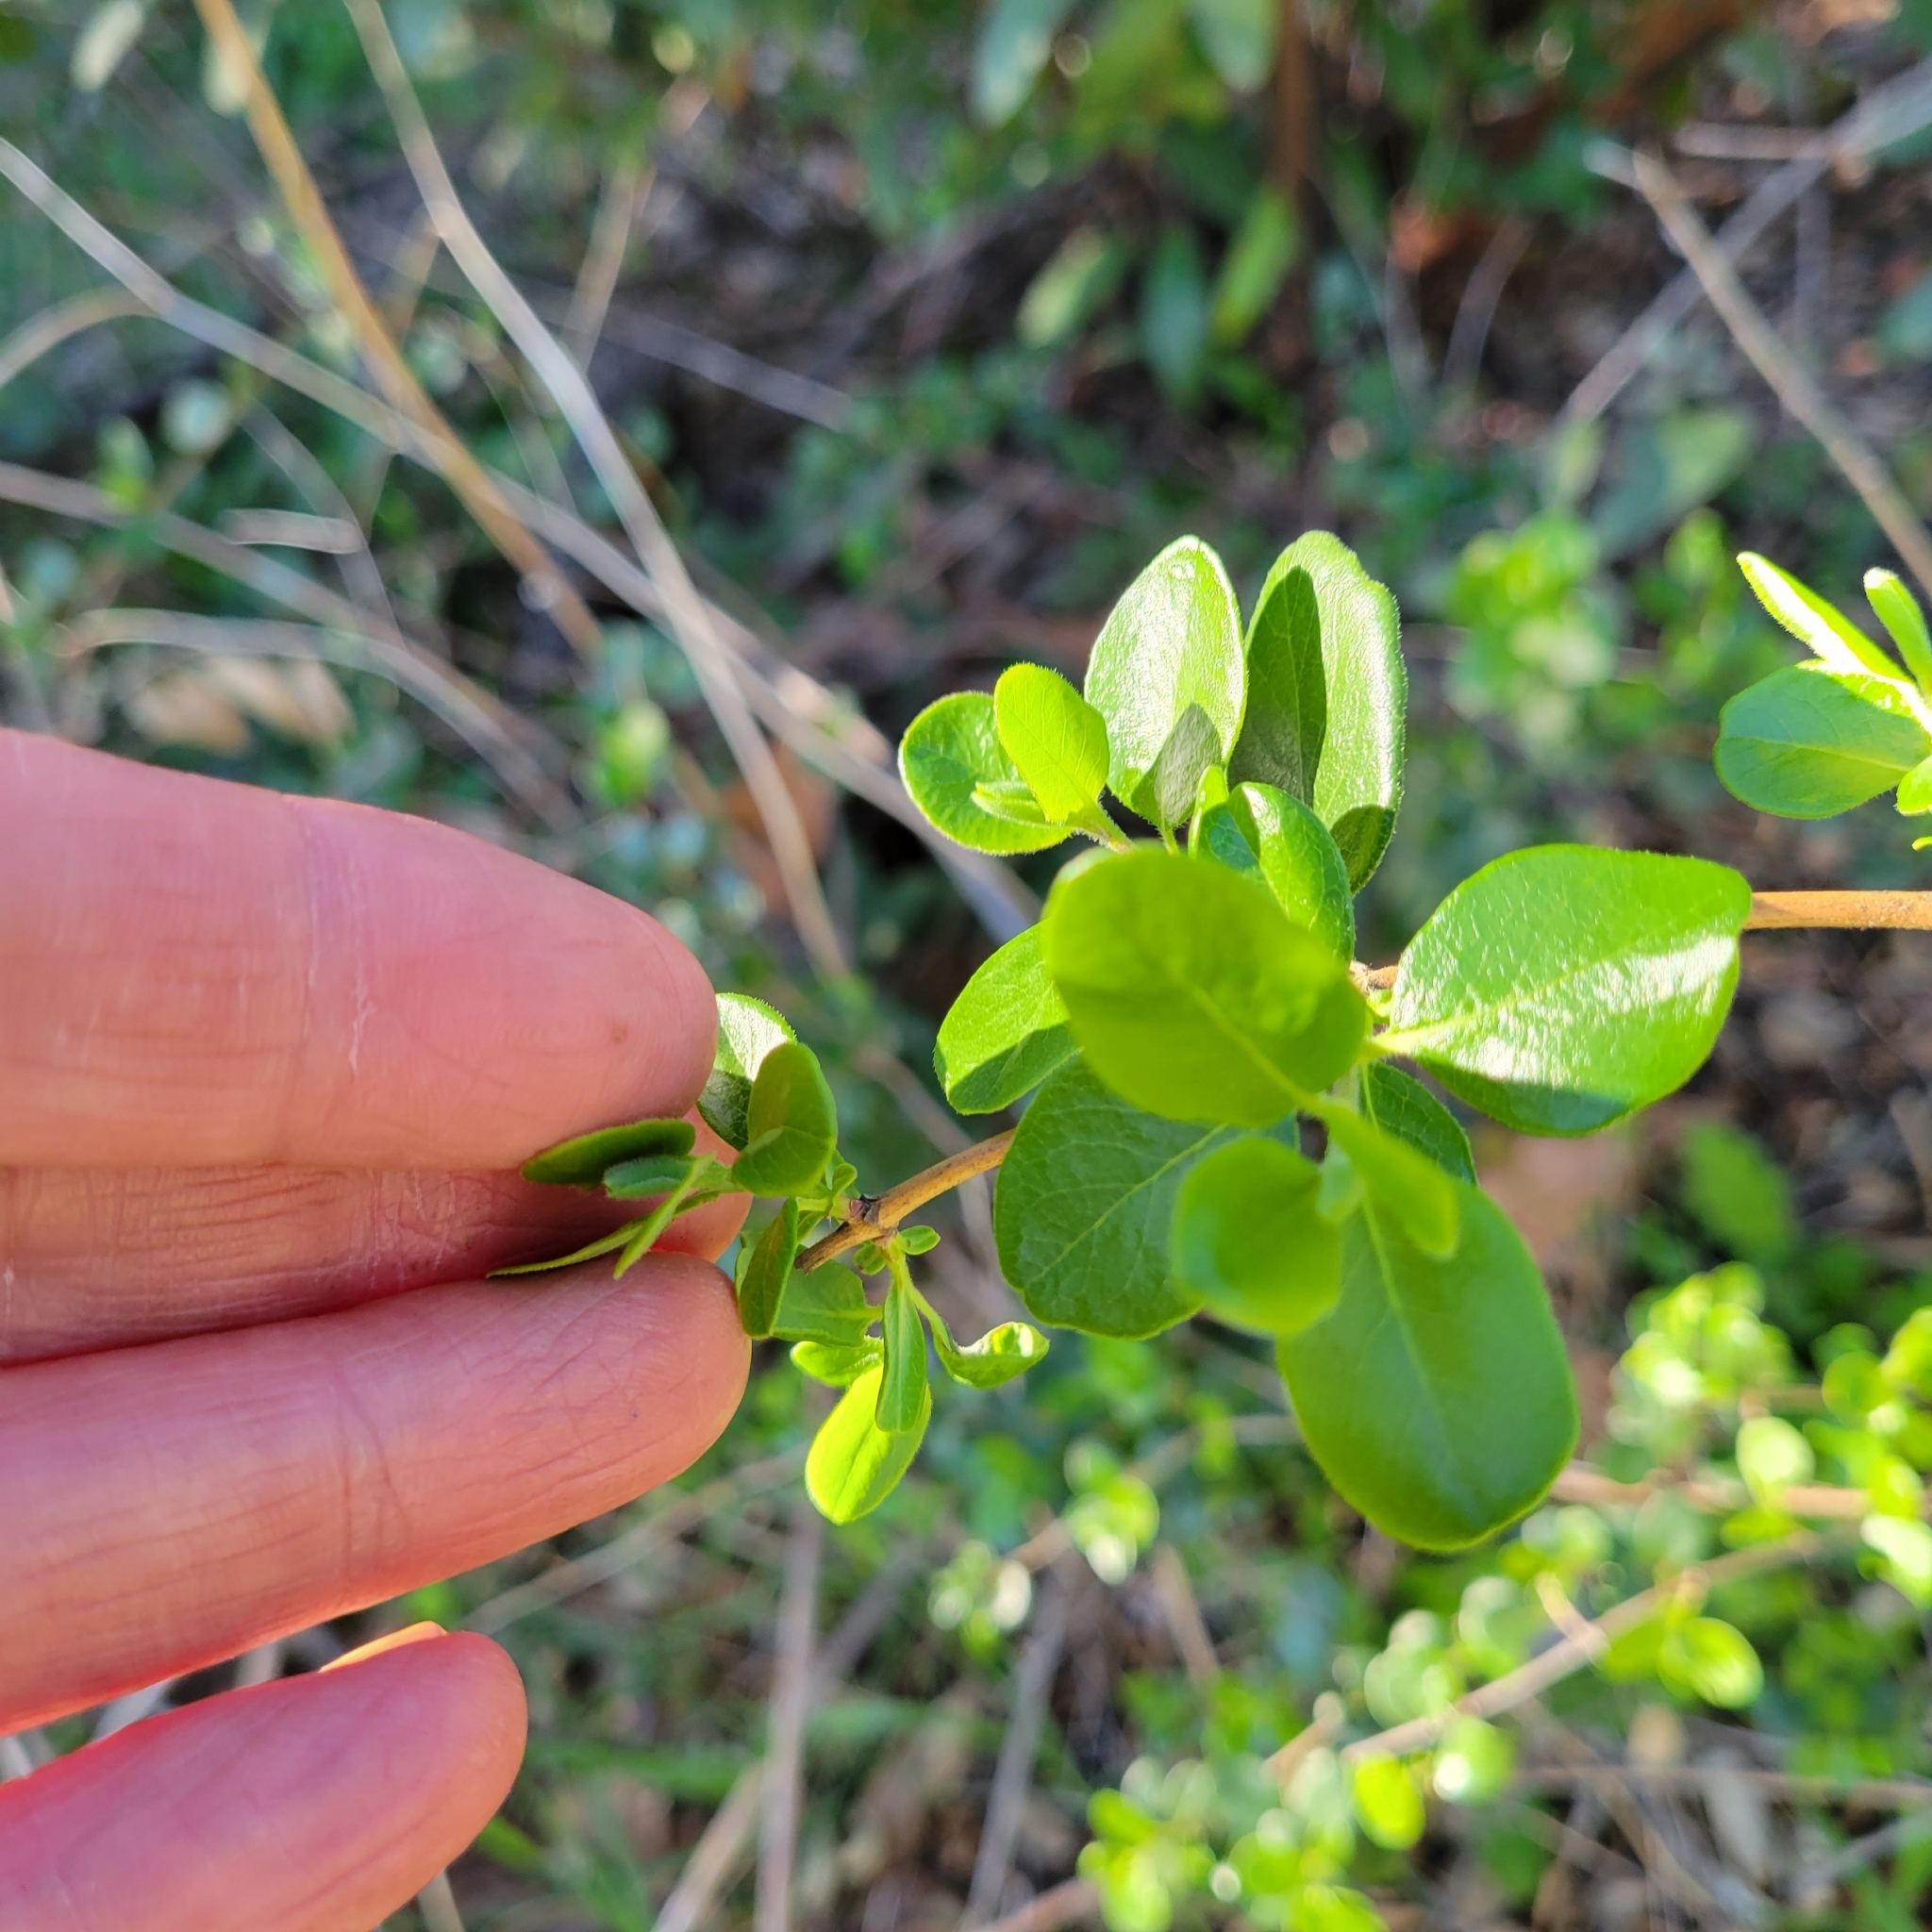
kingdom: Plantae
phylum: Tracheophyta
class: Magnoliopsida
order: Dipsacales
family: Caprifoliaceae
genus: Lonicera
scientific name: Lonicera subspicata
